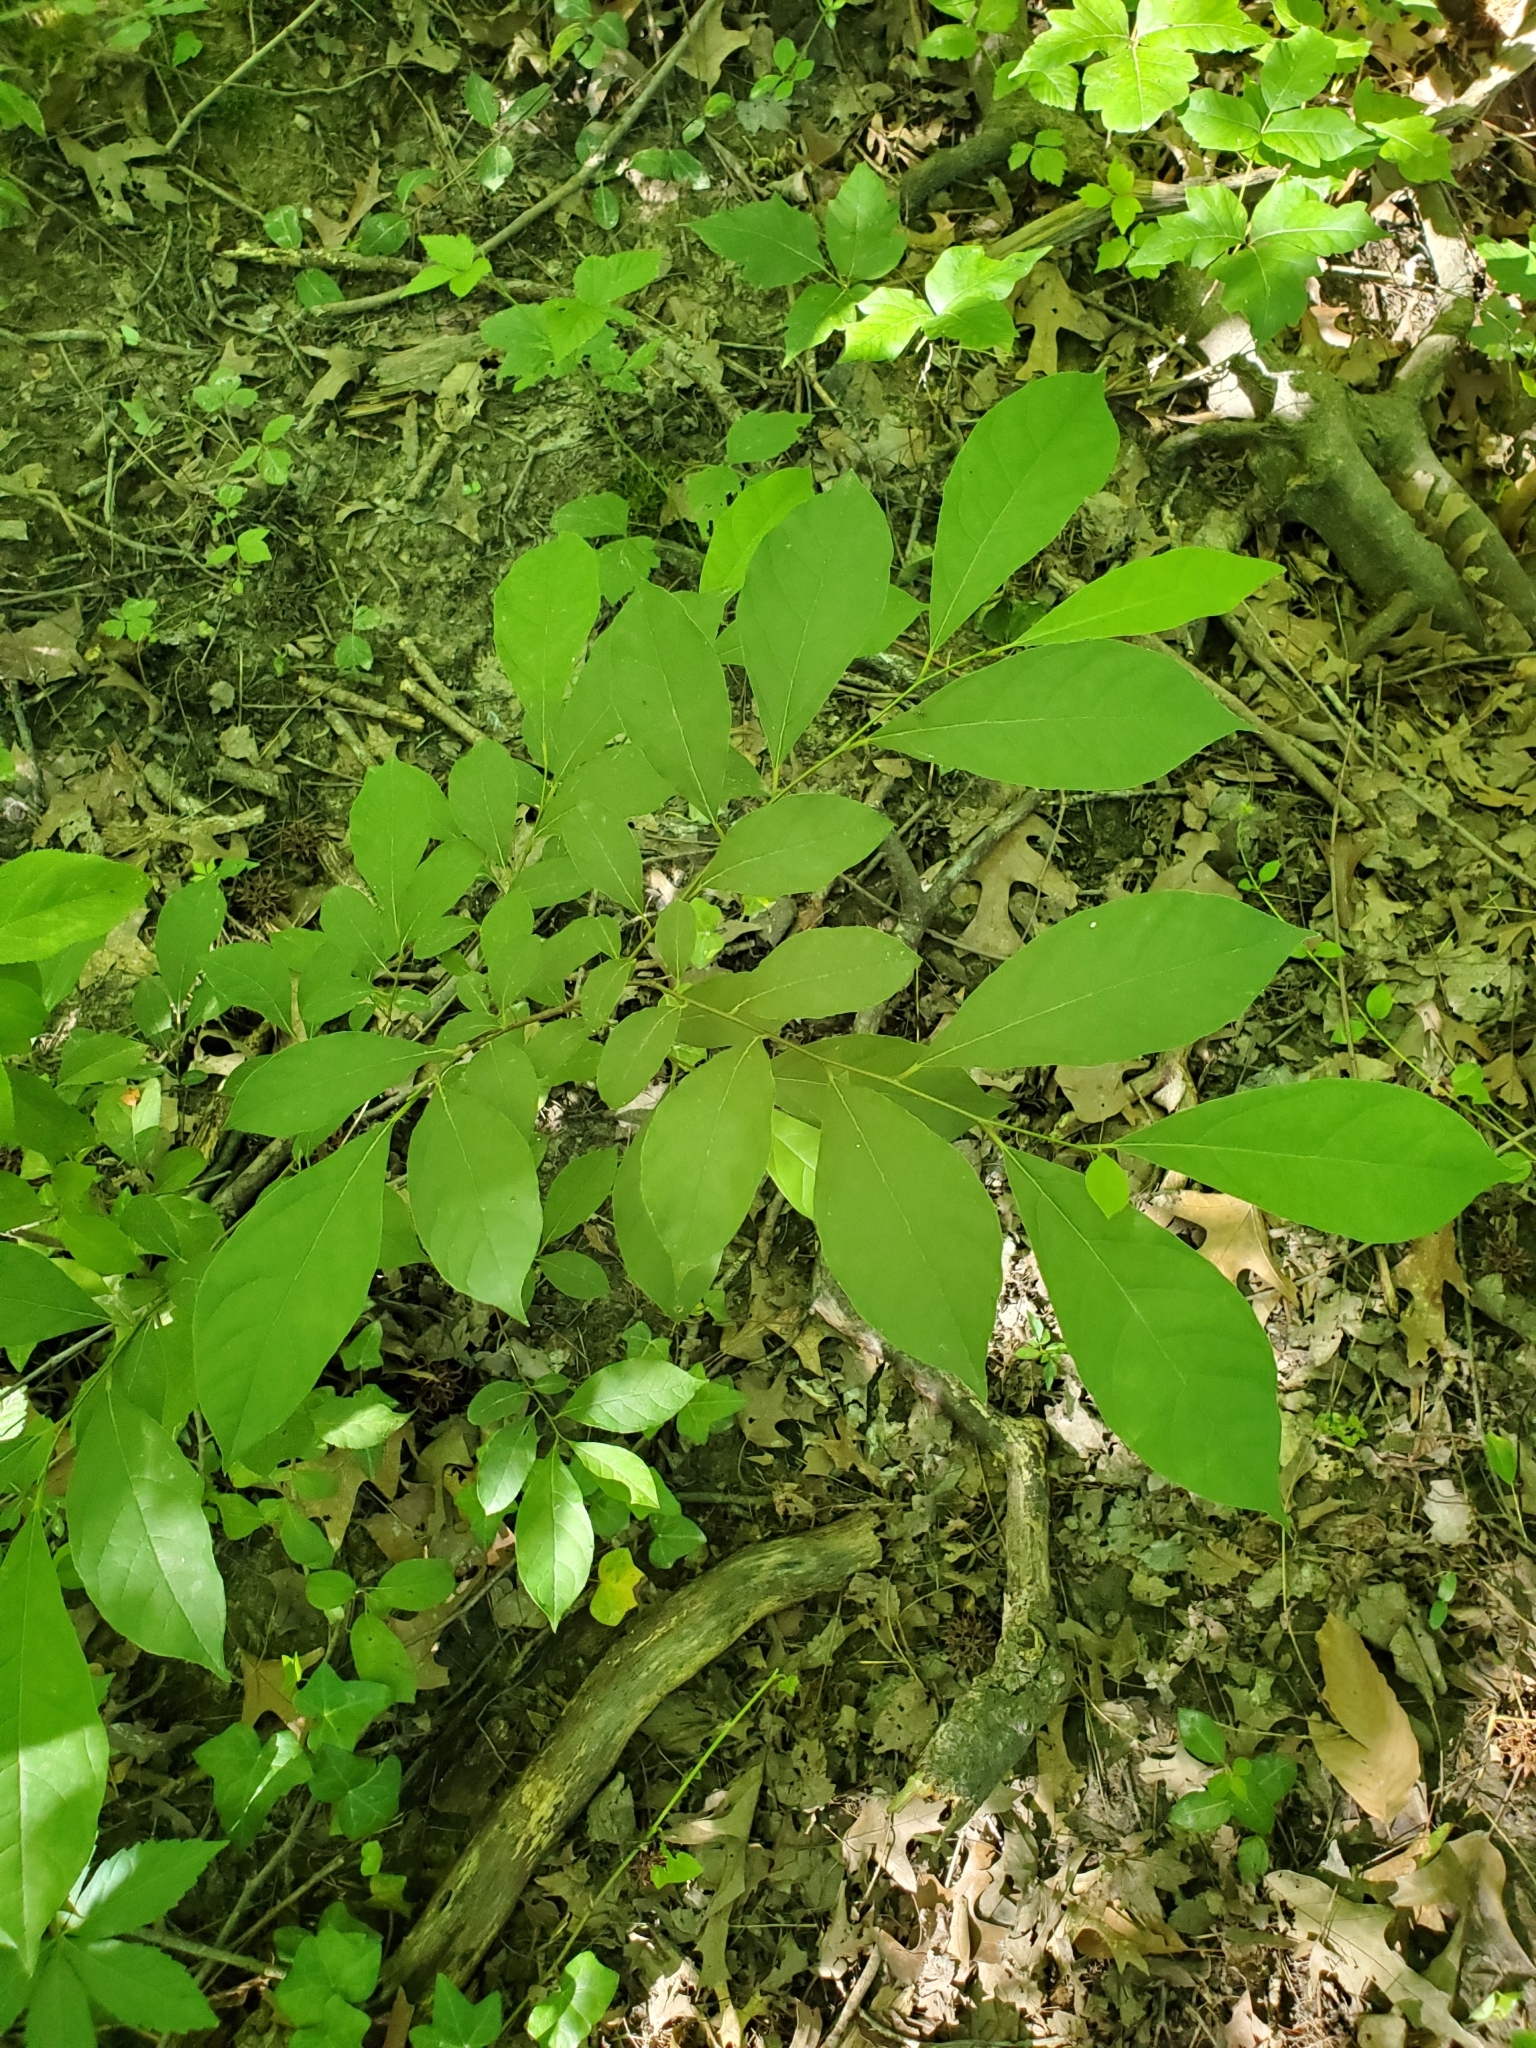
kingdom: Plantae
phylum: Tracheophyta
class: Magnoliopsida
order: Laurales
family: Lauraceae
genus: Lindera
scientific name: Lindera benzoin
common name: Spicebush
